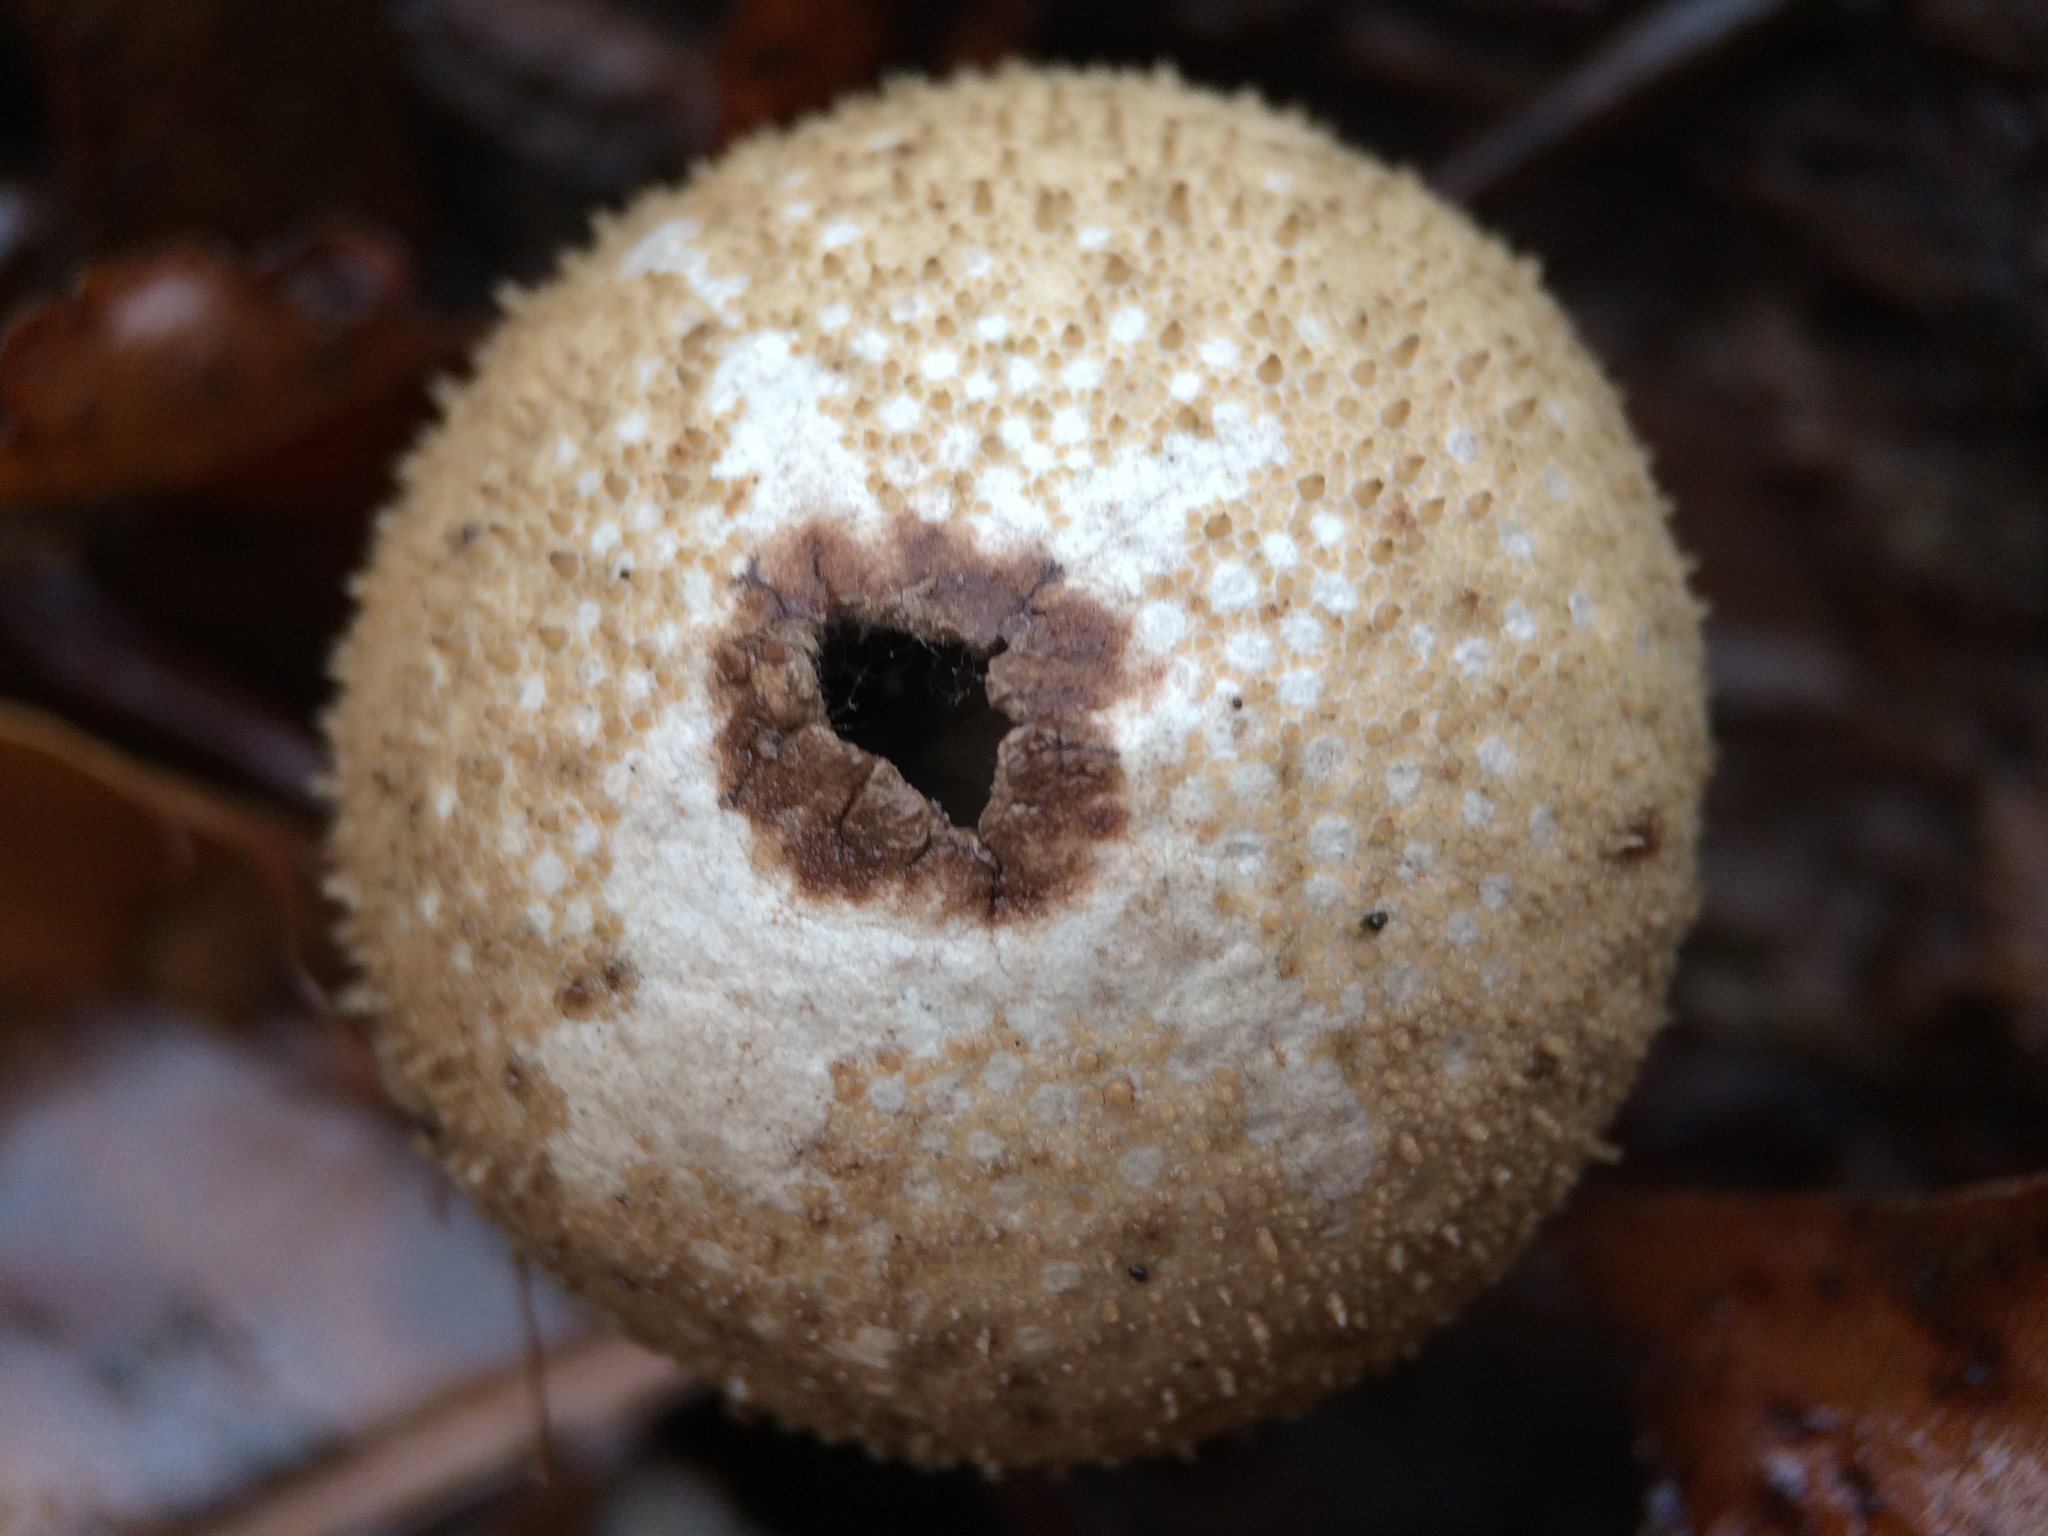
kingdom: Fungi
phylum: Basidiomycota
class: Agaricomycetes
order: Agaricales
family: Lycoperdaceae
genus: Lycoperdon
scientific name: Lycoperdon perlatum
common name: Common puffball
